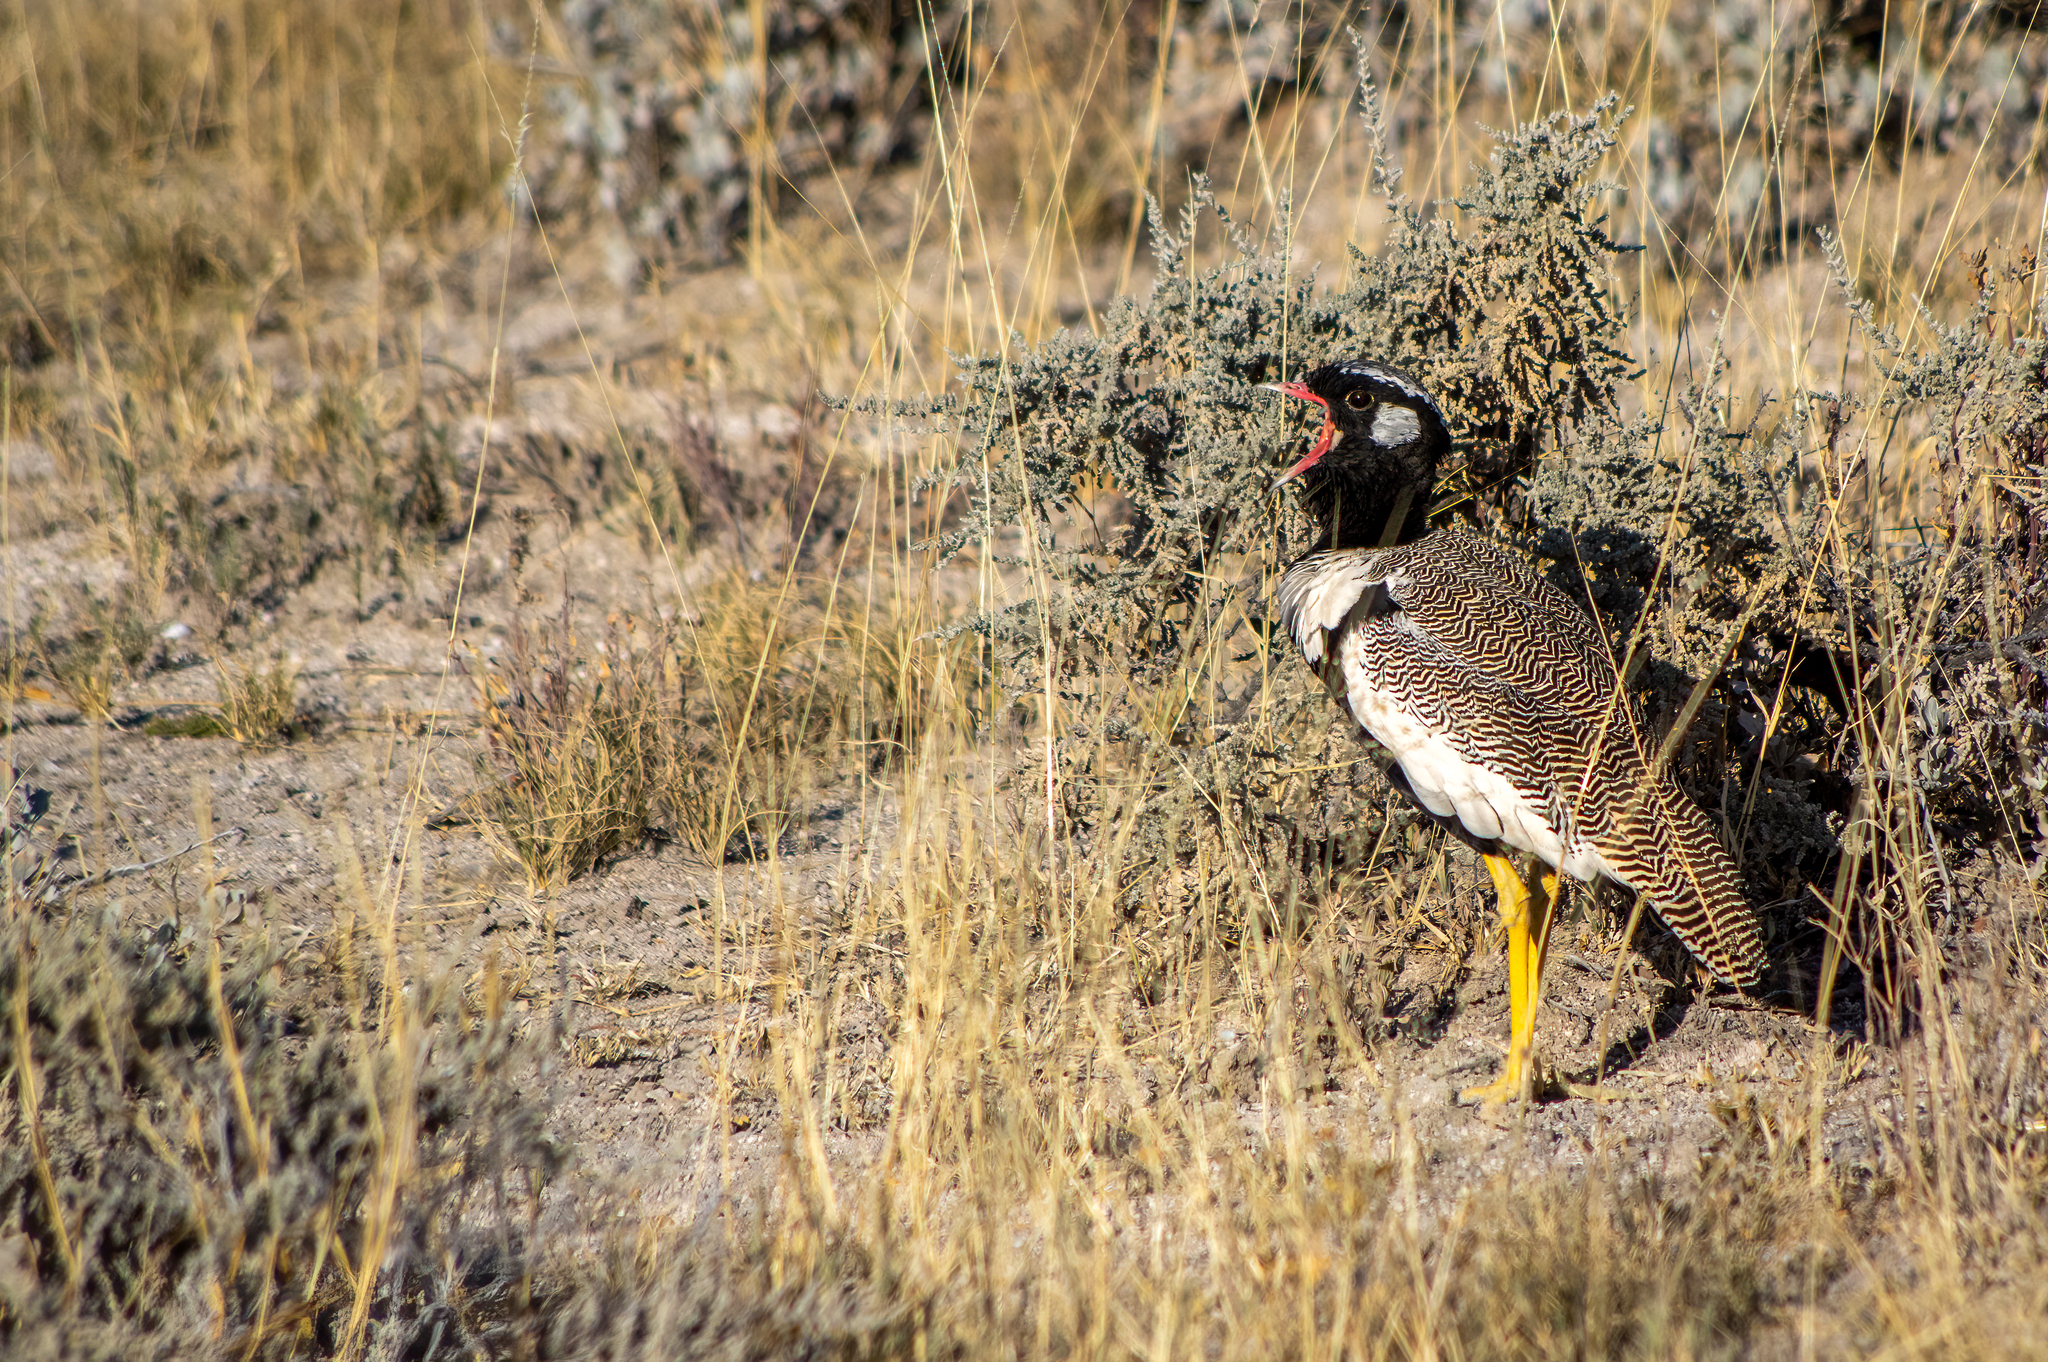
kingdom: Animalia
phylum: Chordata
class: Aves
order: Otidiformes
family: Otididae
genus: Afrotis
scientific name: Afrotis afraoides
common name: Northern black korhaan
